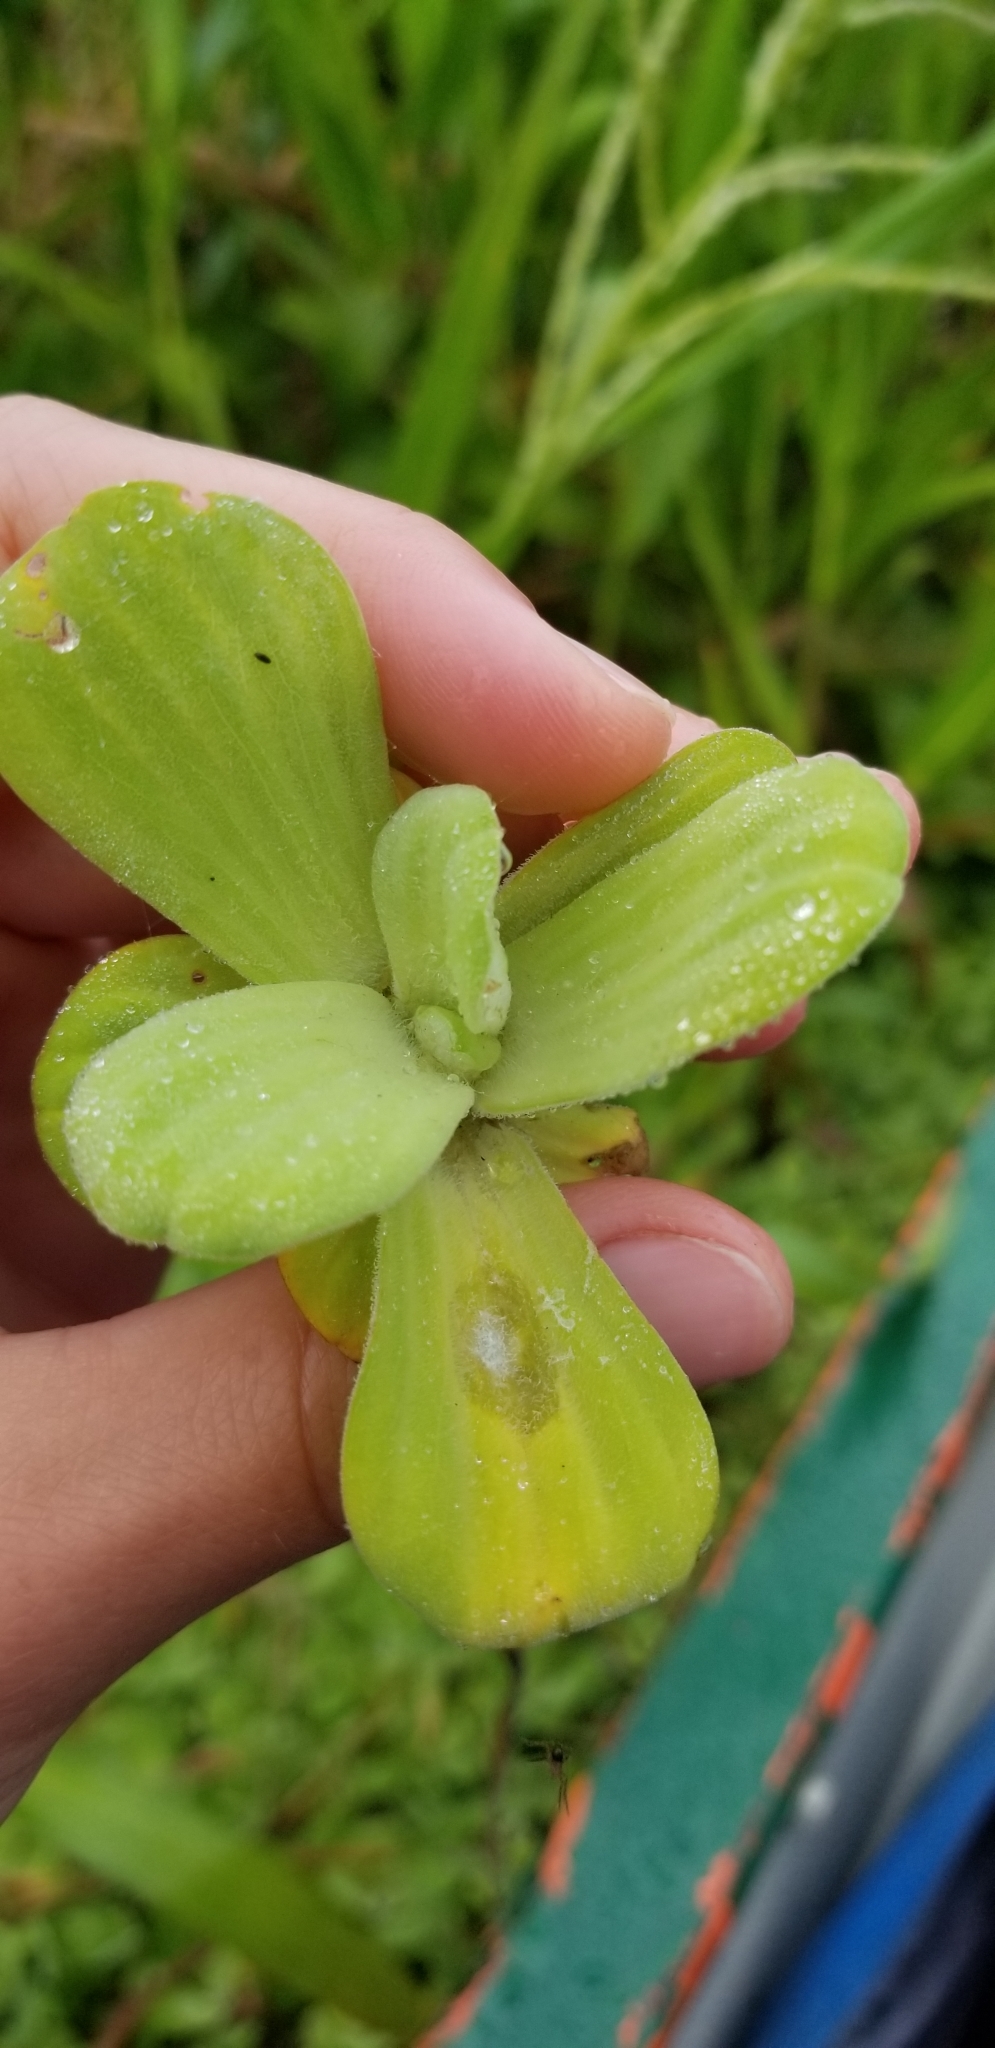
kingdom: Plantae
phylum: Tracheophyta
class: Liliopsida
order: Alismatales
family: Araceae
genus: Pistia
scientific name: Pistia stratiotes
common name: Water lettuce
